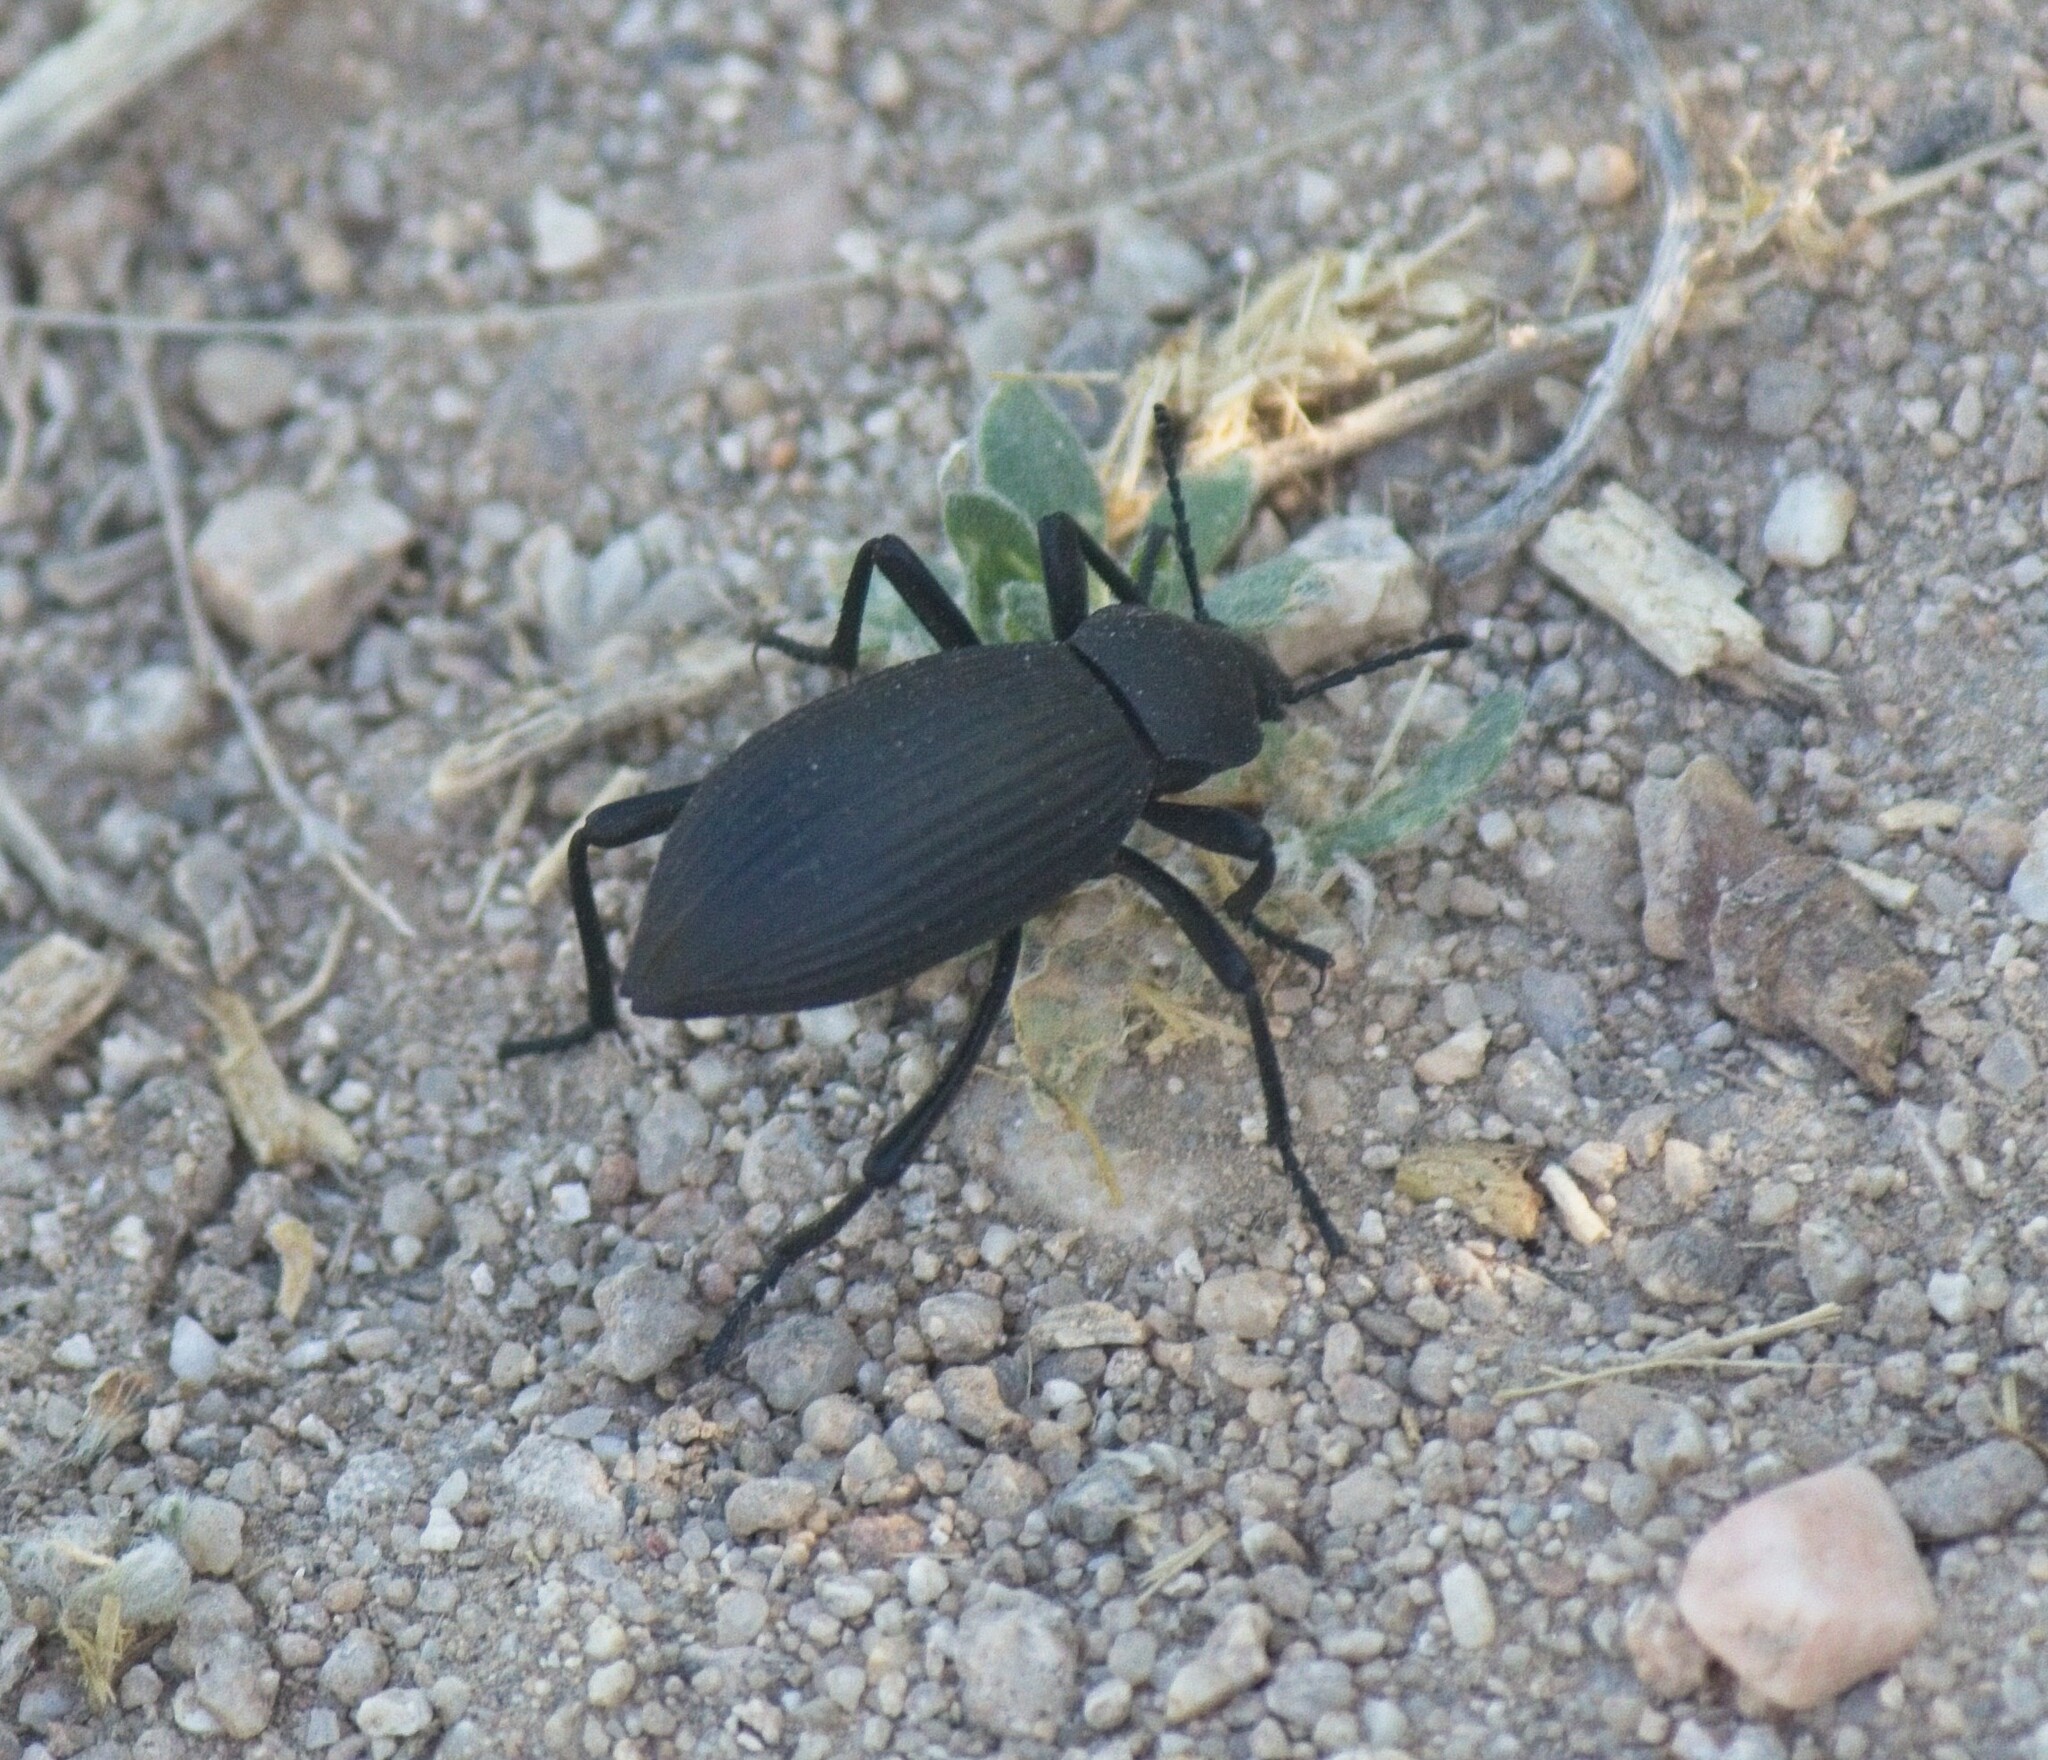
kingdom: Animalia
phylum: Arthropoda
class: Insecta
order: Coleoptera
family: Tenebrionidae
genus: Eleodes
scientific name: Eleodes hispilabris
